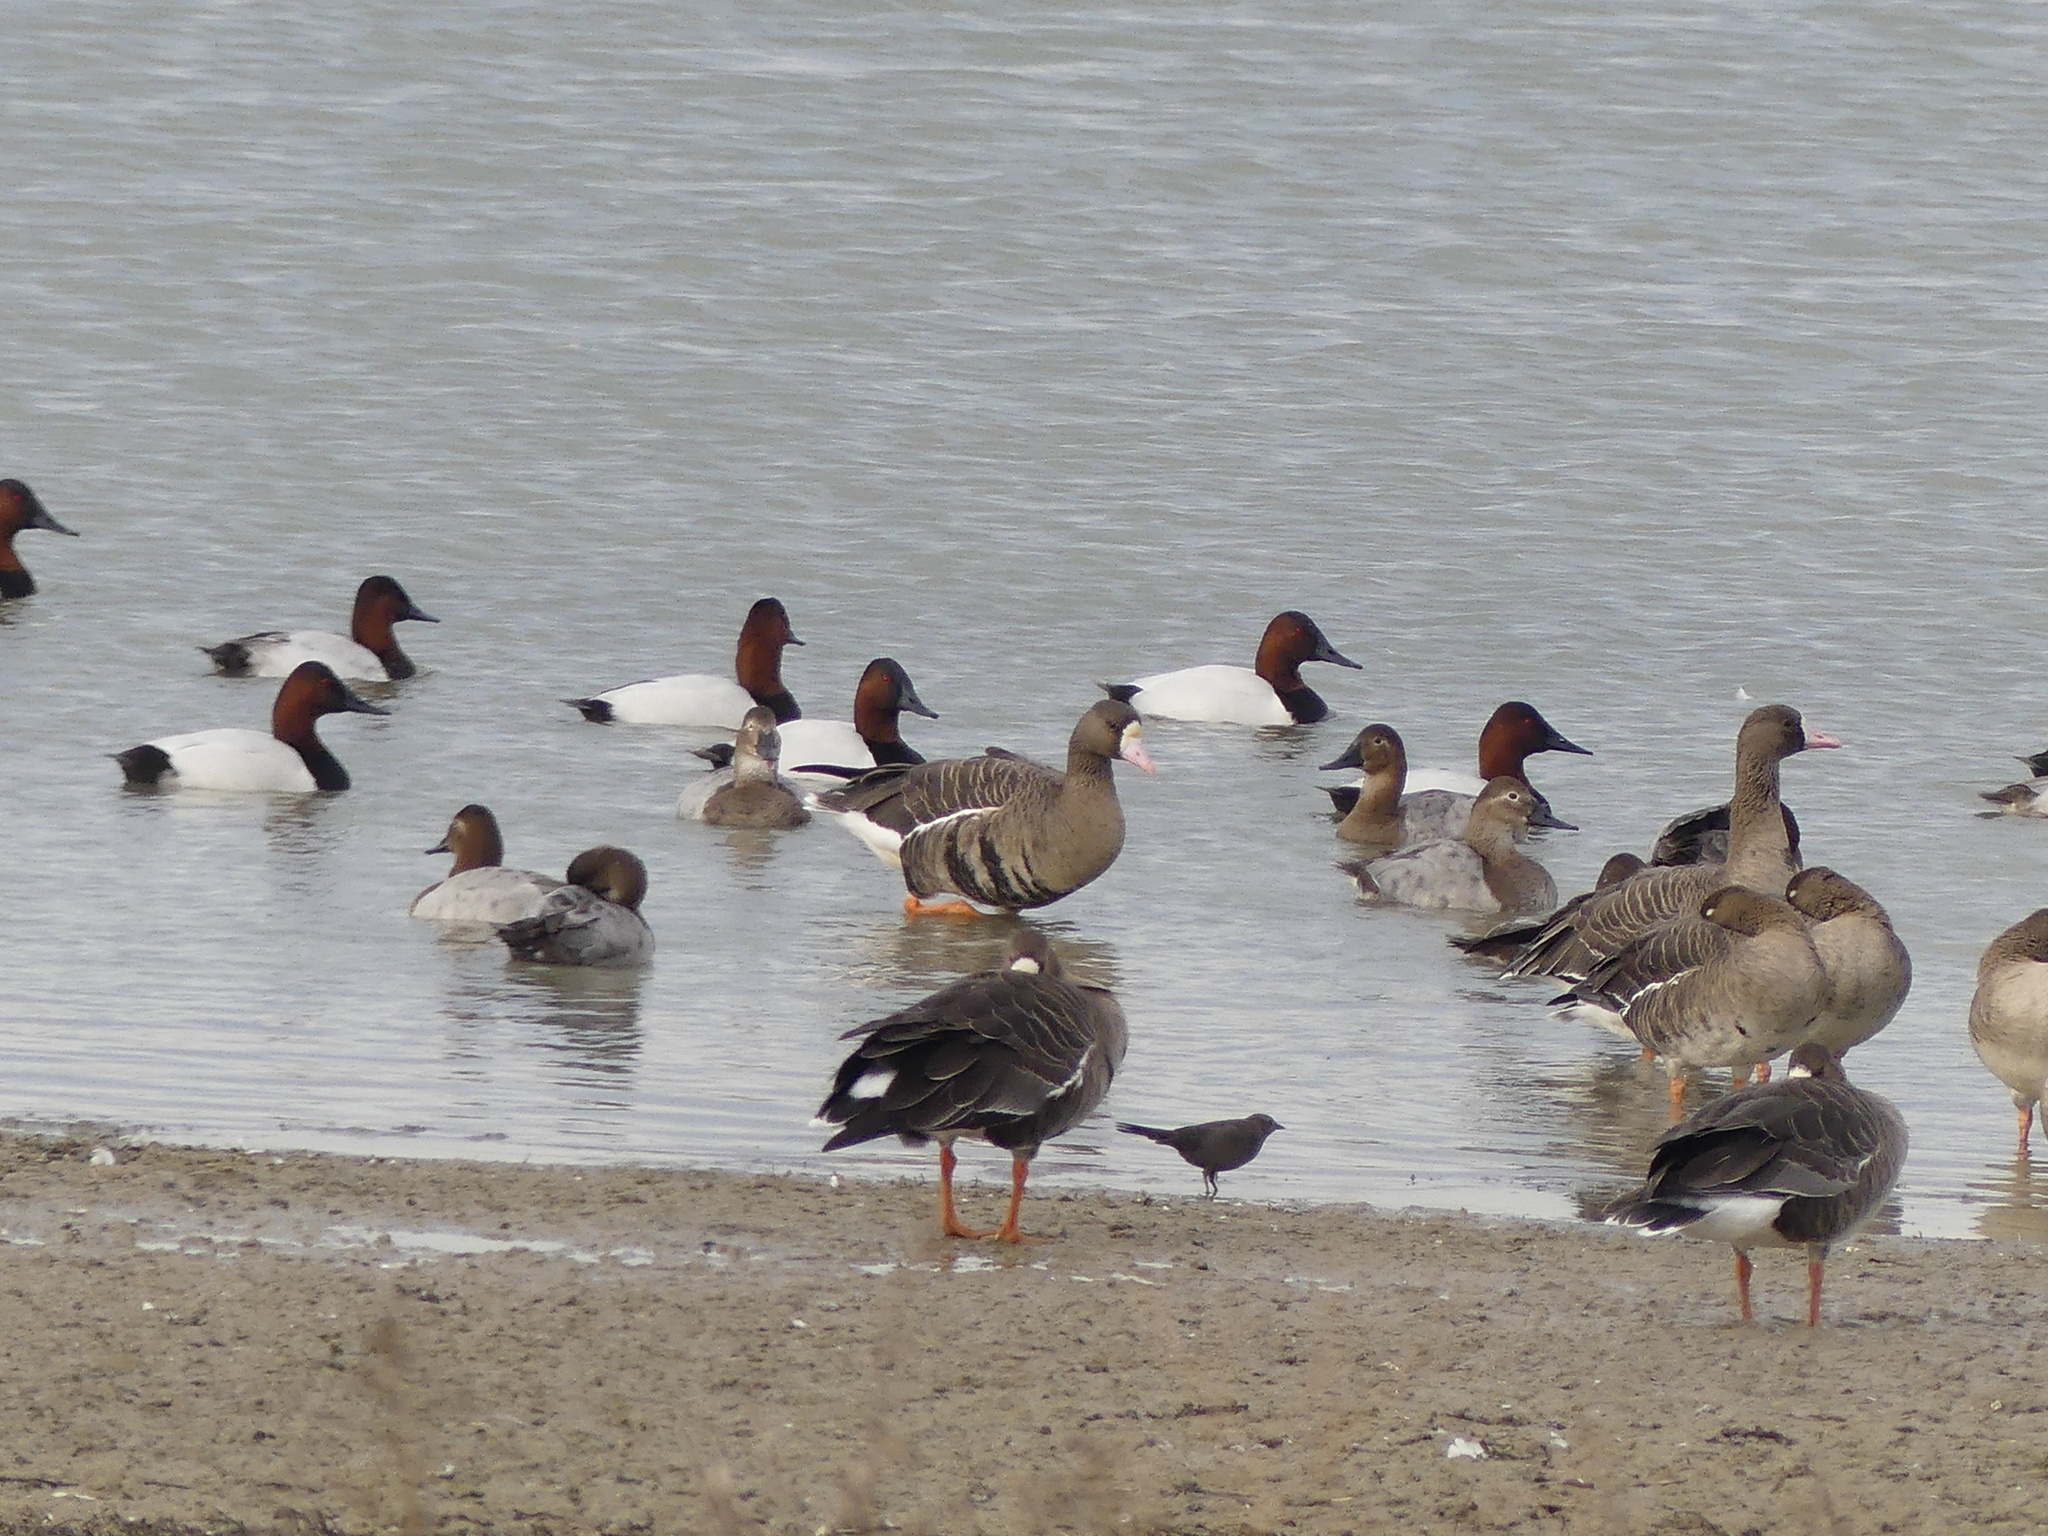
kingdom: Animalia
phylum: Chordata
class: Aves
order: Anseriformes
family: Anatidae
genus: Aythya
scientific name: Aythya valisineria
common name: Canvasback
